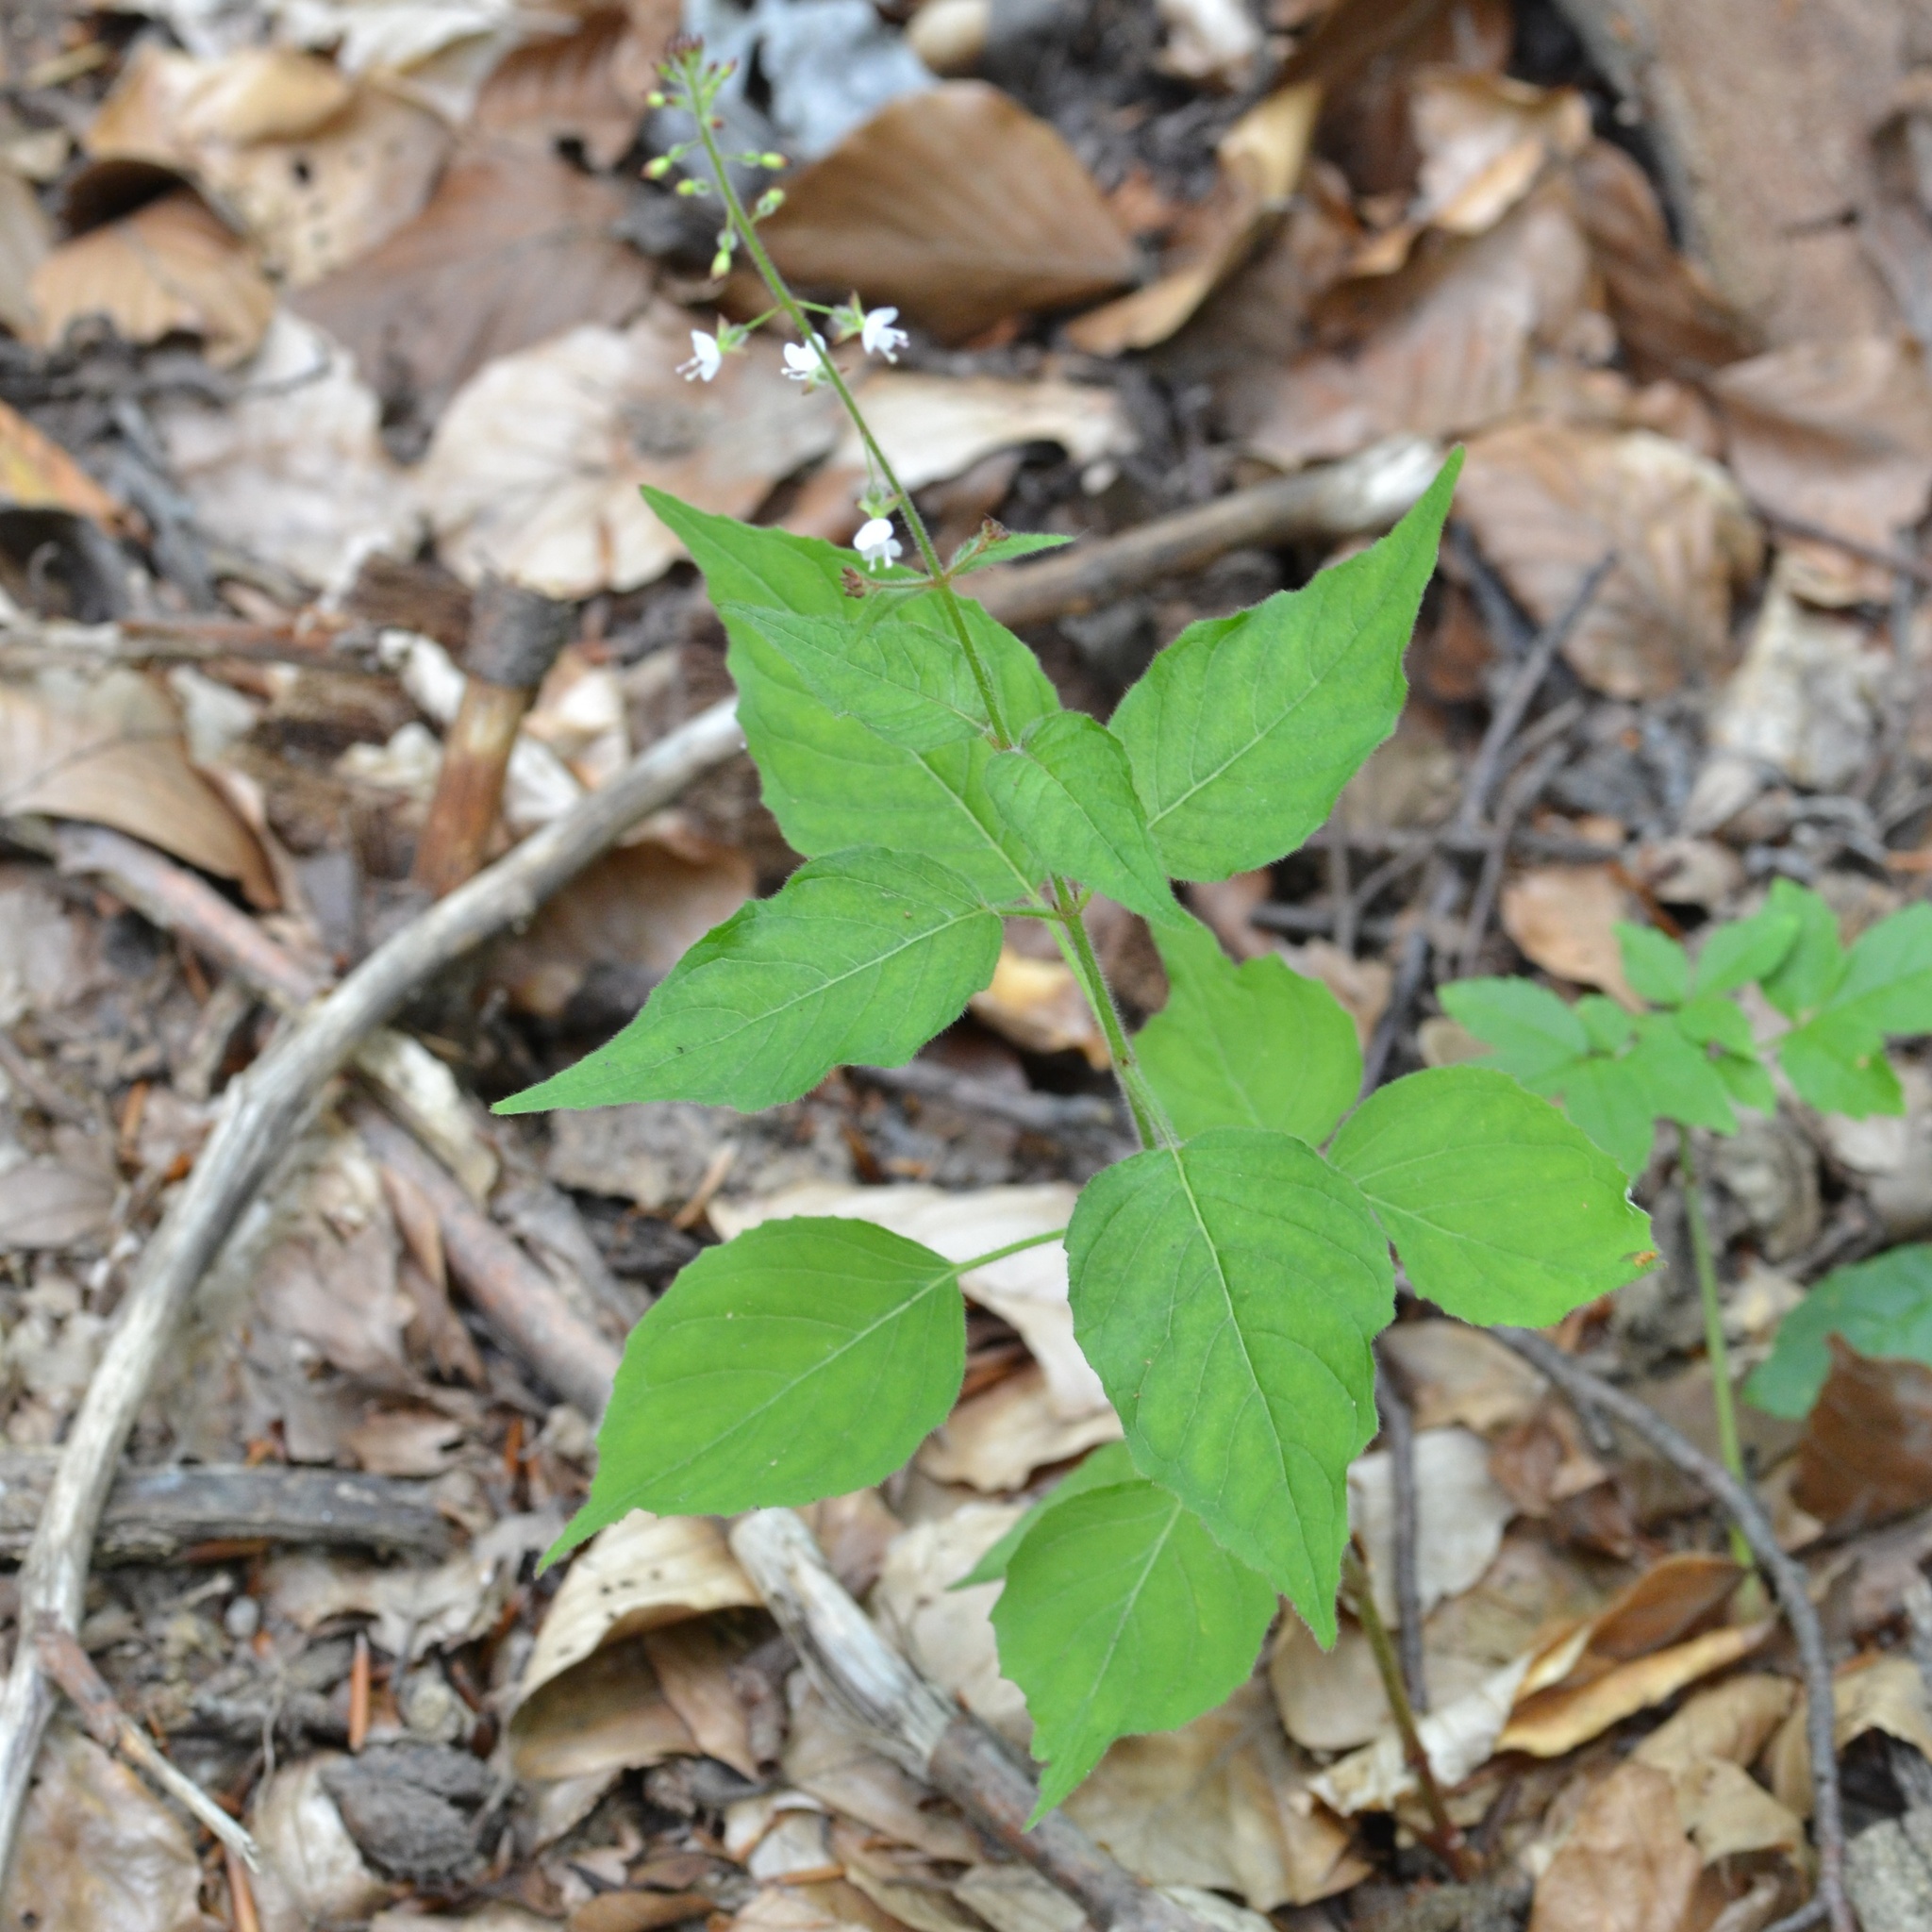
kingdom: Plantae
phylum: Tracheophyta
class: Magnoliopsida
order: Myrtales
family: Onagraceae
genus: Circaea
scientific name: Circaea lutetiana
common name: Enchanter's-nightshade
